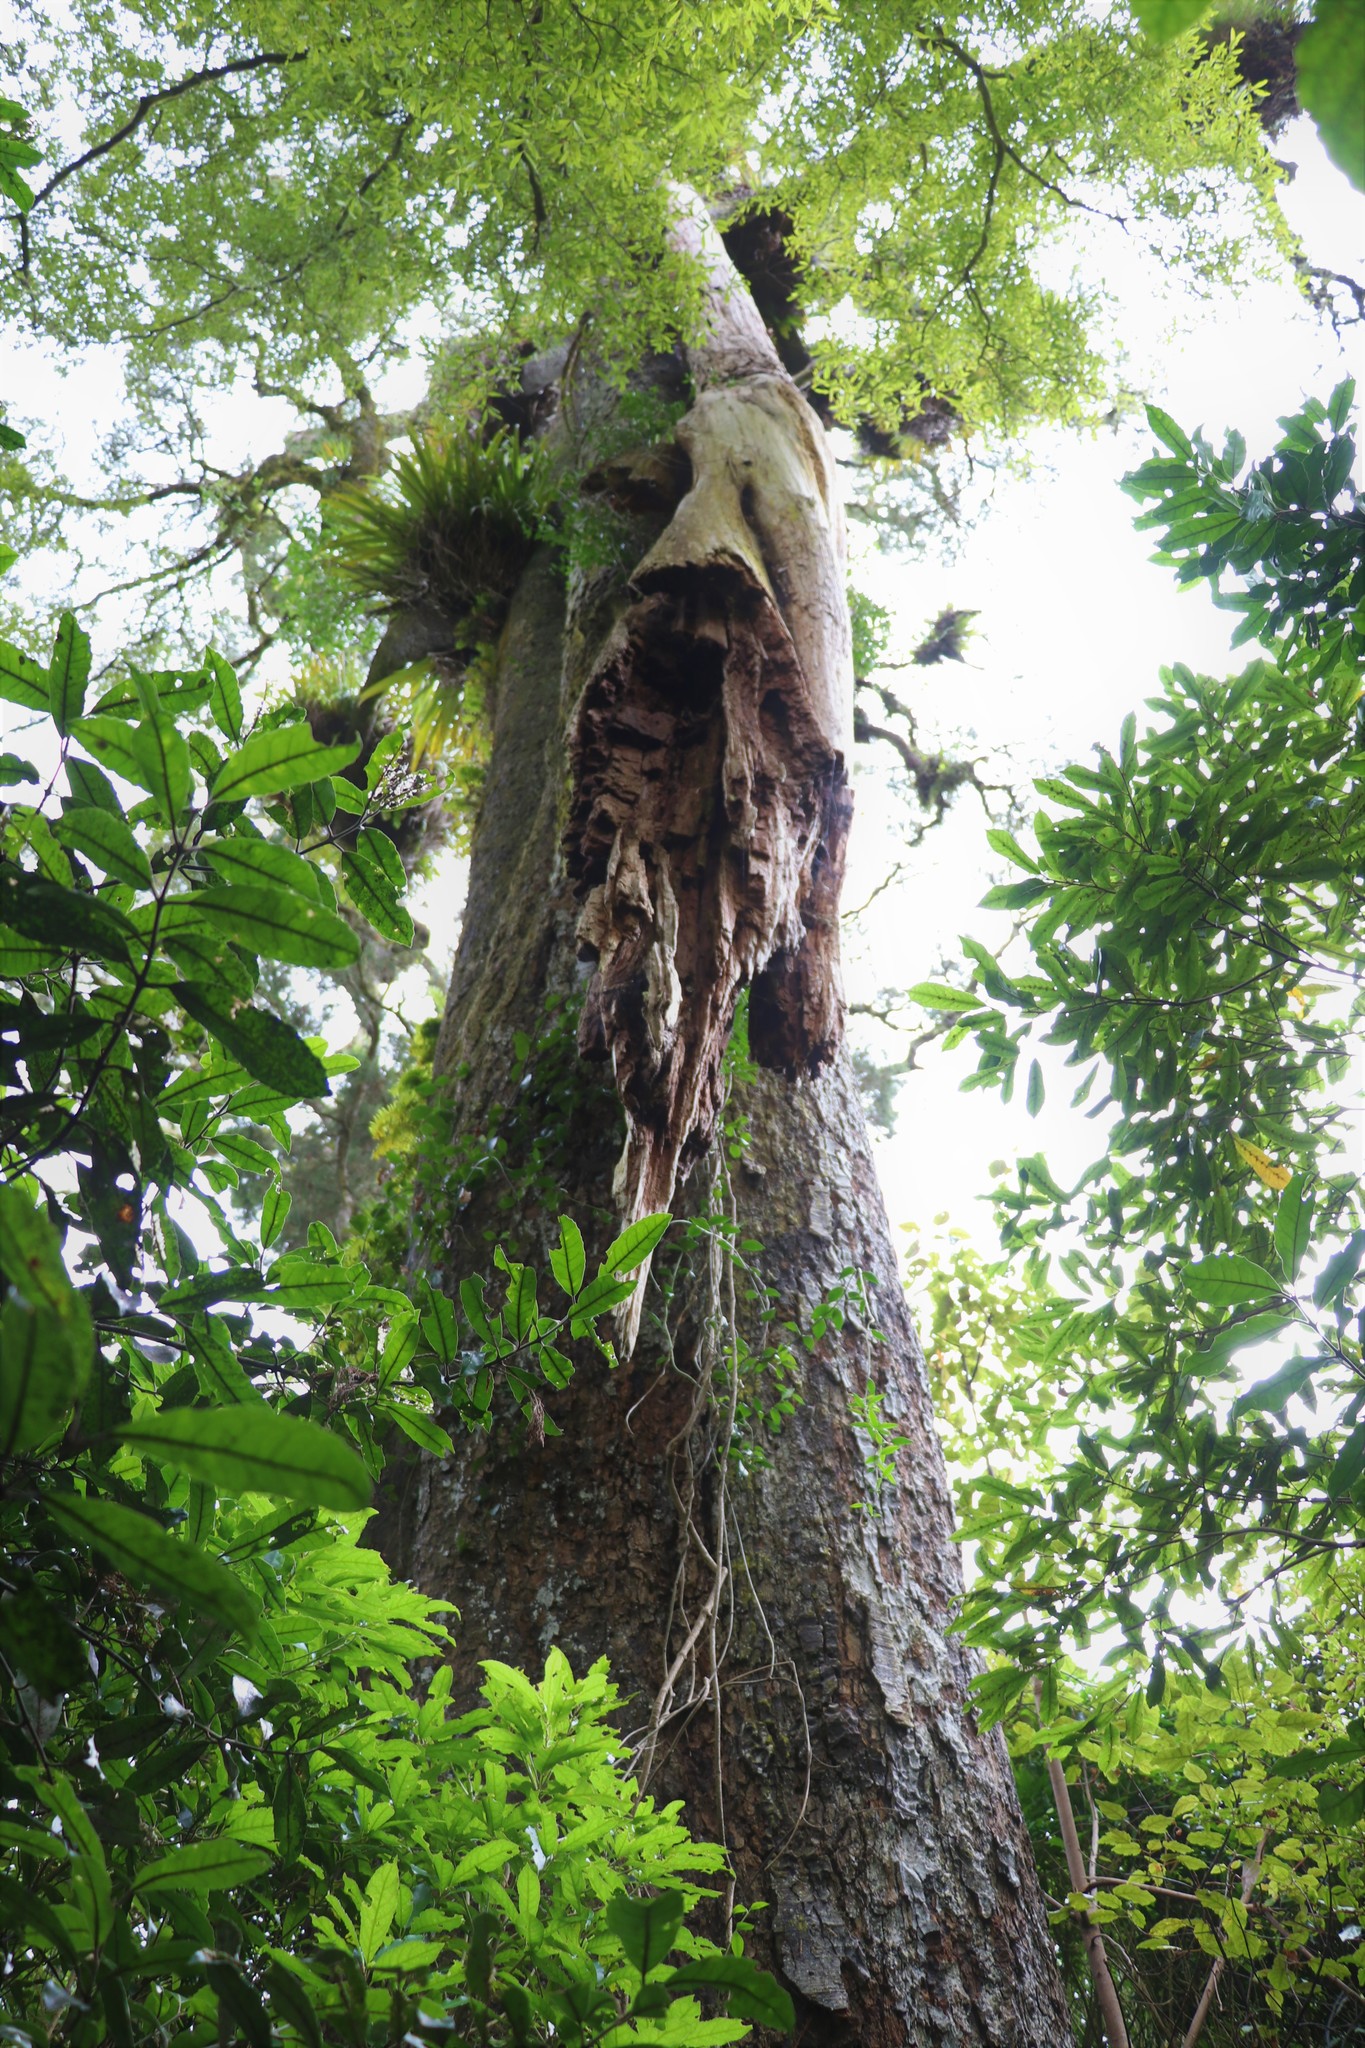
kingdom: Plantae
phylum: Tracheophyta
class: Magnoliopsida
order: Myrtales
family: Myrtaceae
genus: Metrosideros
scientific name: Metrosideros robusta
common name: Northern rata
